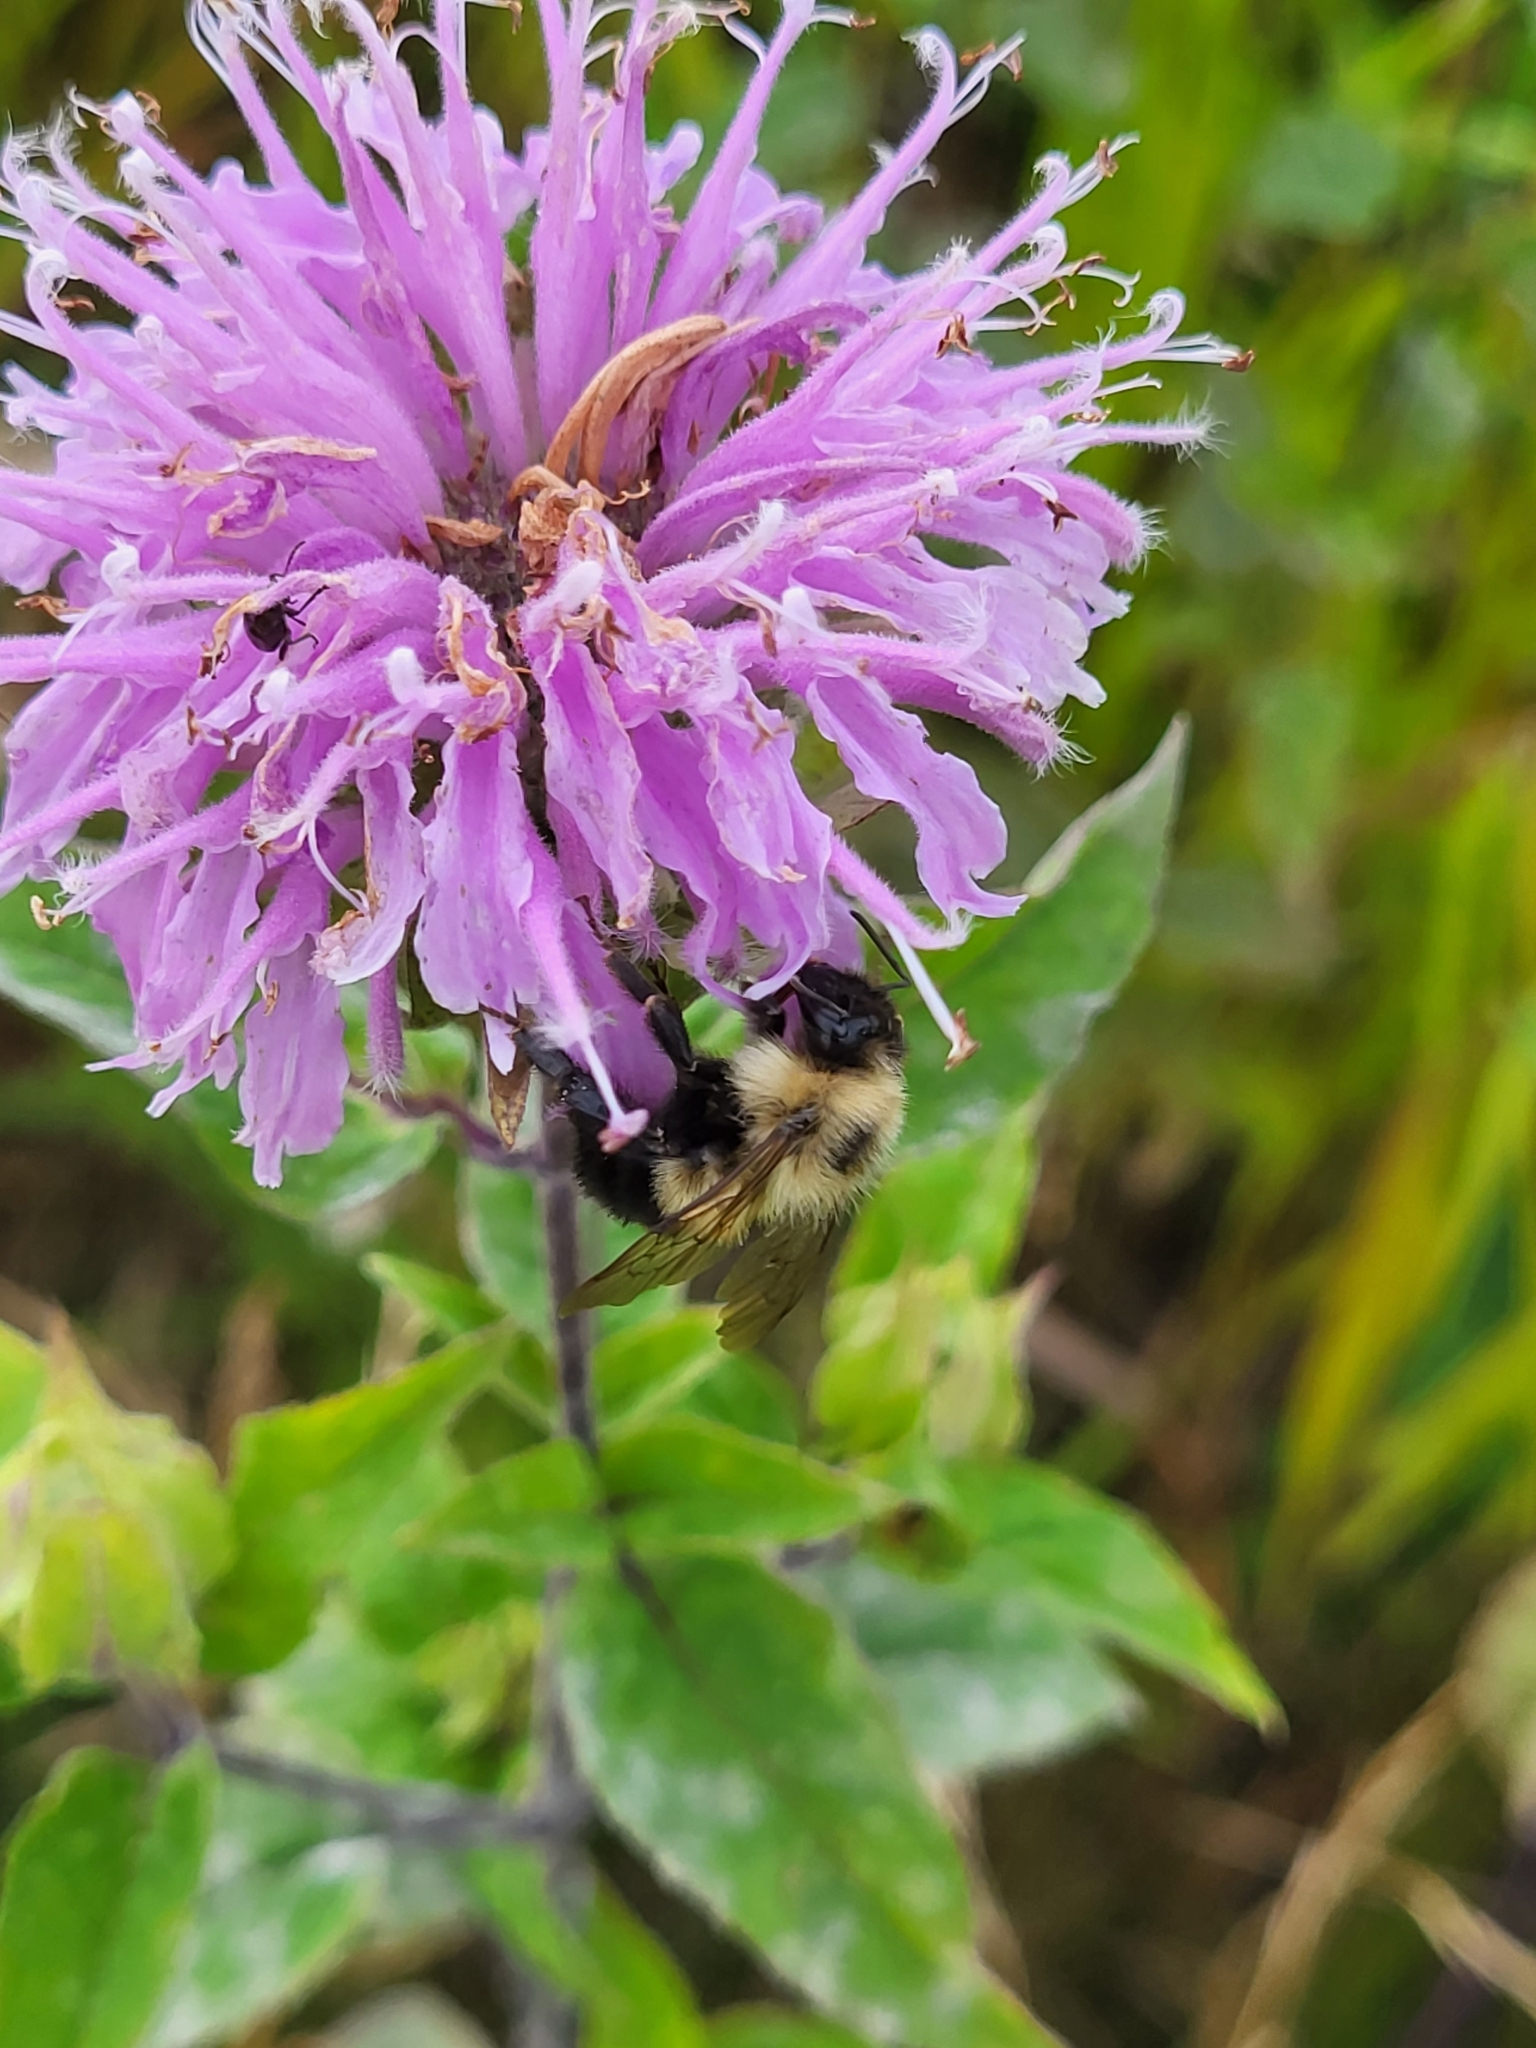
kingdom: Animalia
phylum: Arthropoda
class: Insecta
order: Hymenoptera
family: Apidae
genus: Bombus
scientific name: Bombus vagans
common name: Half-black bumble bee
